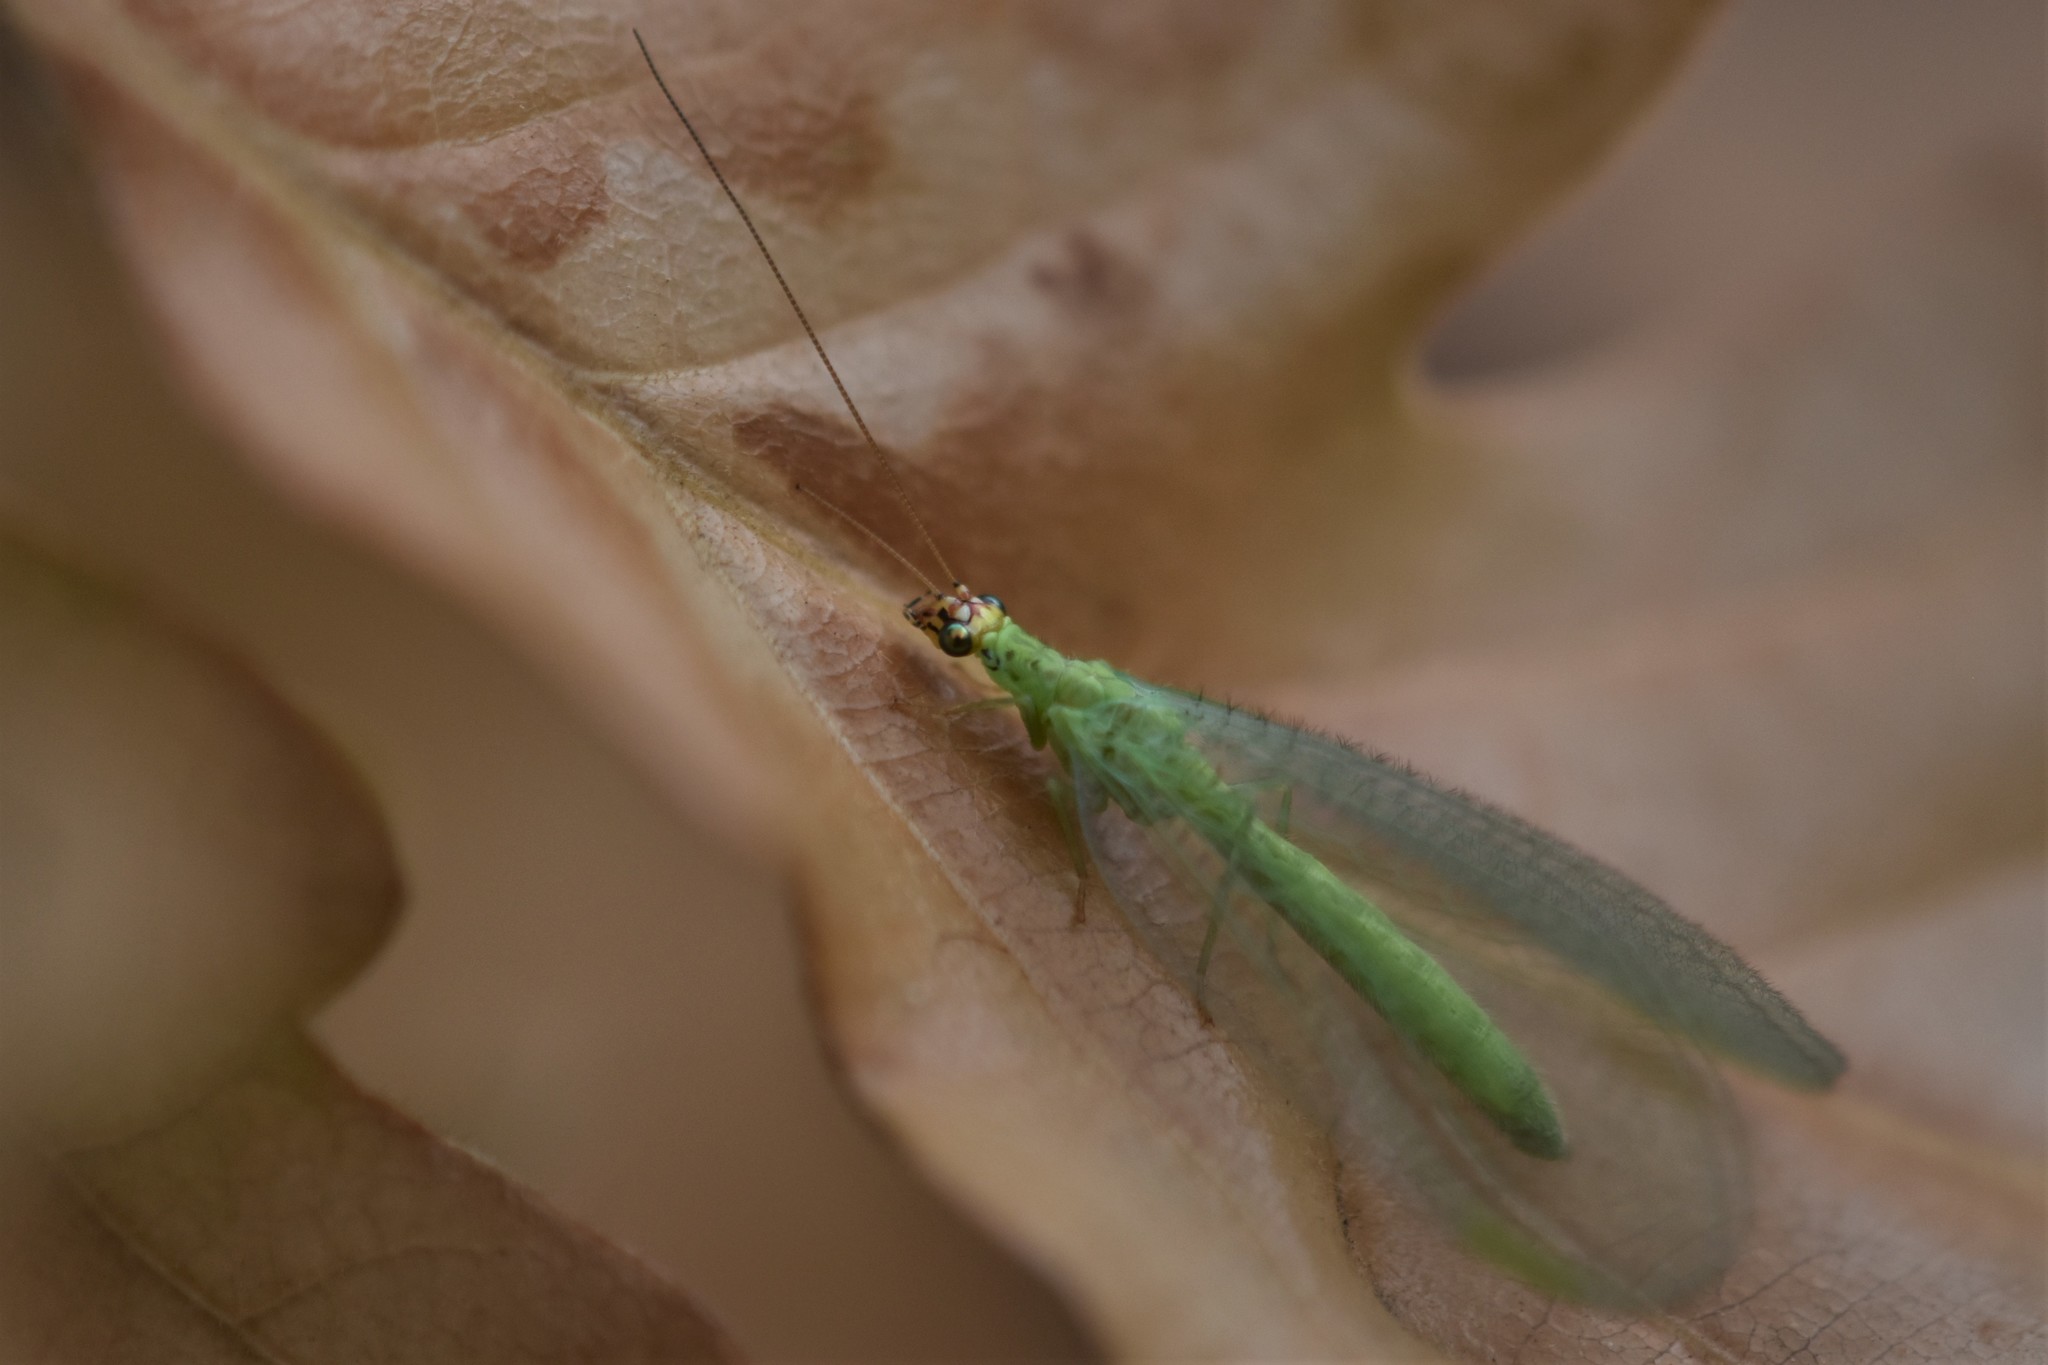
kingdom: Animalia
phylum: Arthropoda
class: Insecta
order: Neuroptera
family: Chrysopidae
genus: Chrysopa
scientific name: Chrysopa oculata
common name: Golden-eyed lacewing
